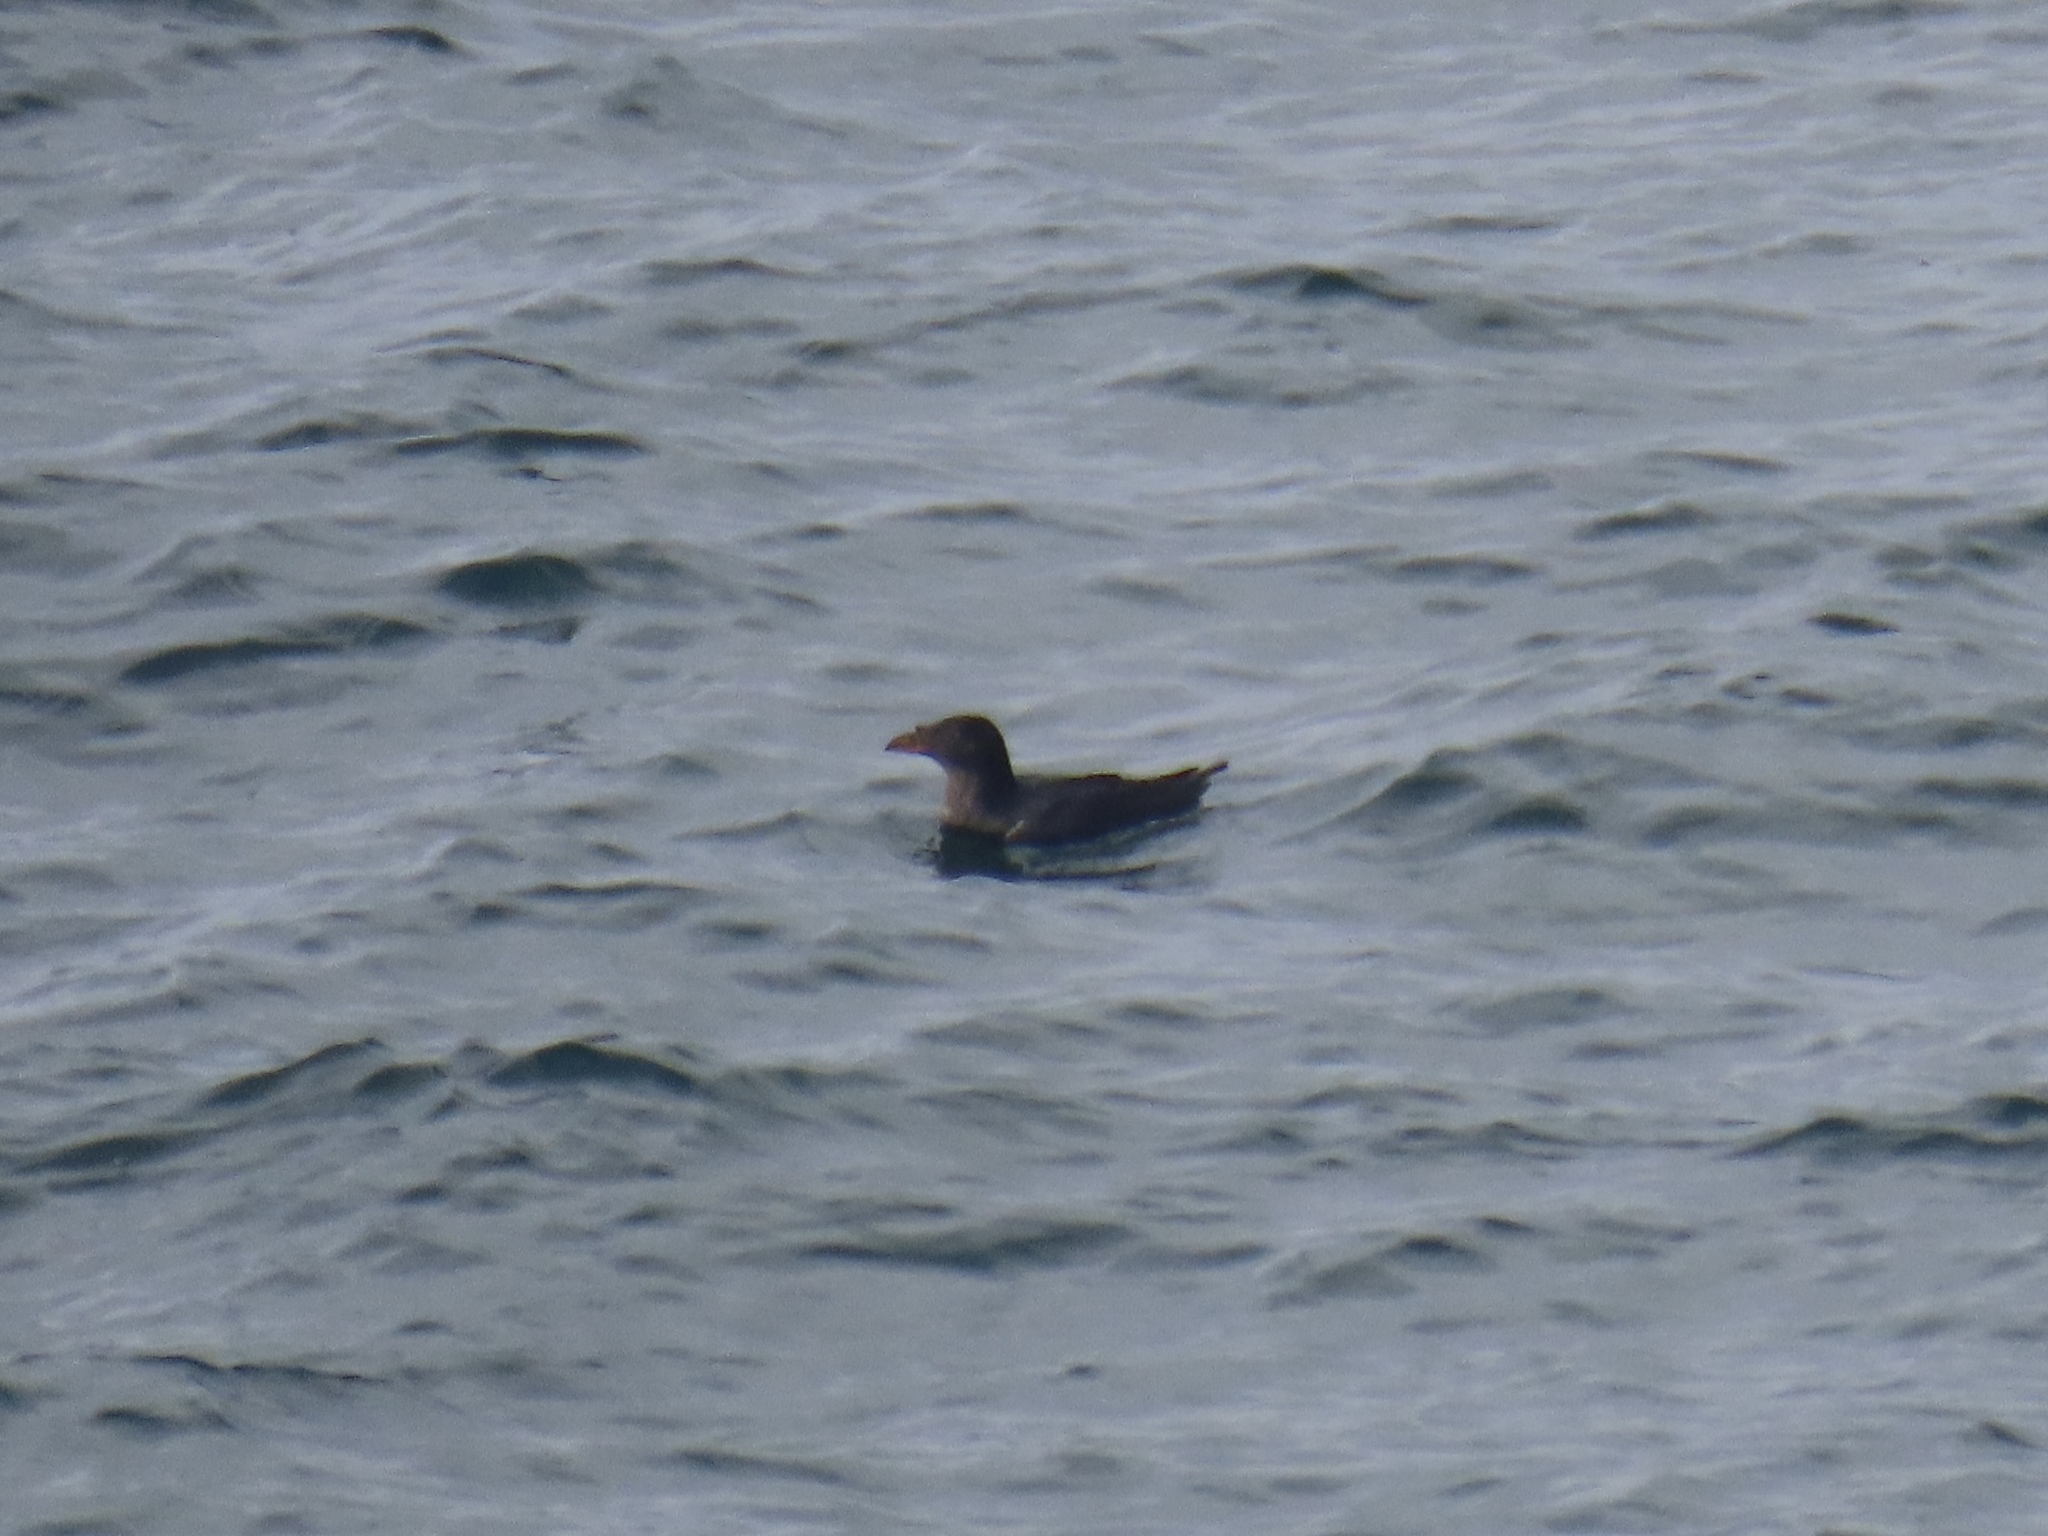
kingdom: Animalia
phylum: Chordata
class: Aves
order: Charadriiformes
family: Alcidae
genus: Cerorhinca
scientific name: Cerorhinca monocerata
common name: Rhinoceros auklet
